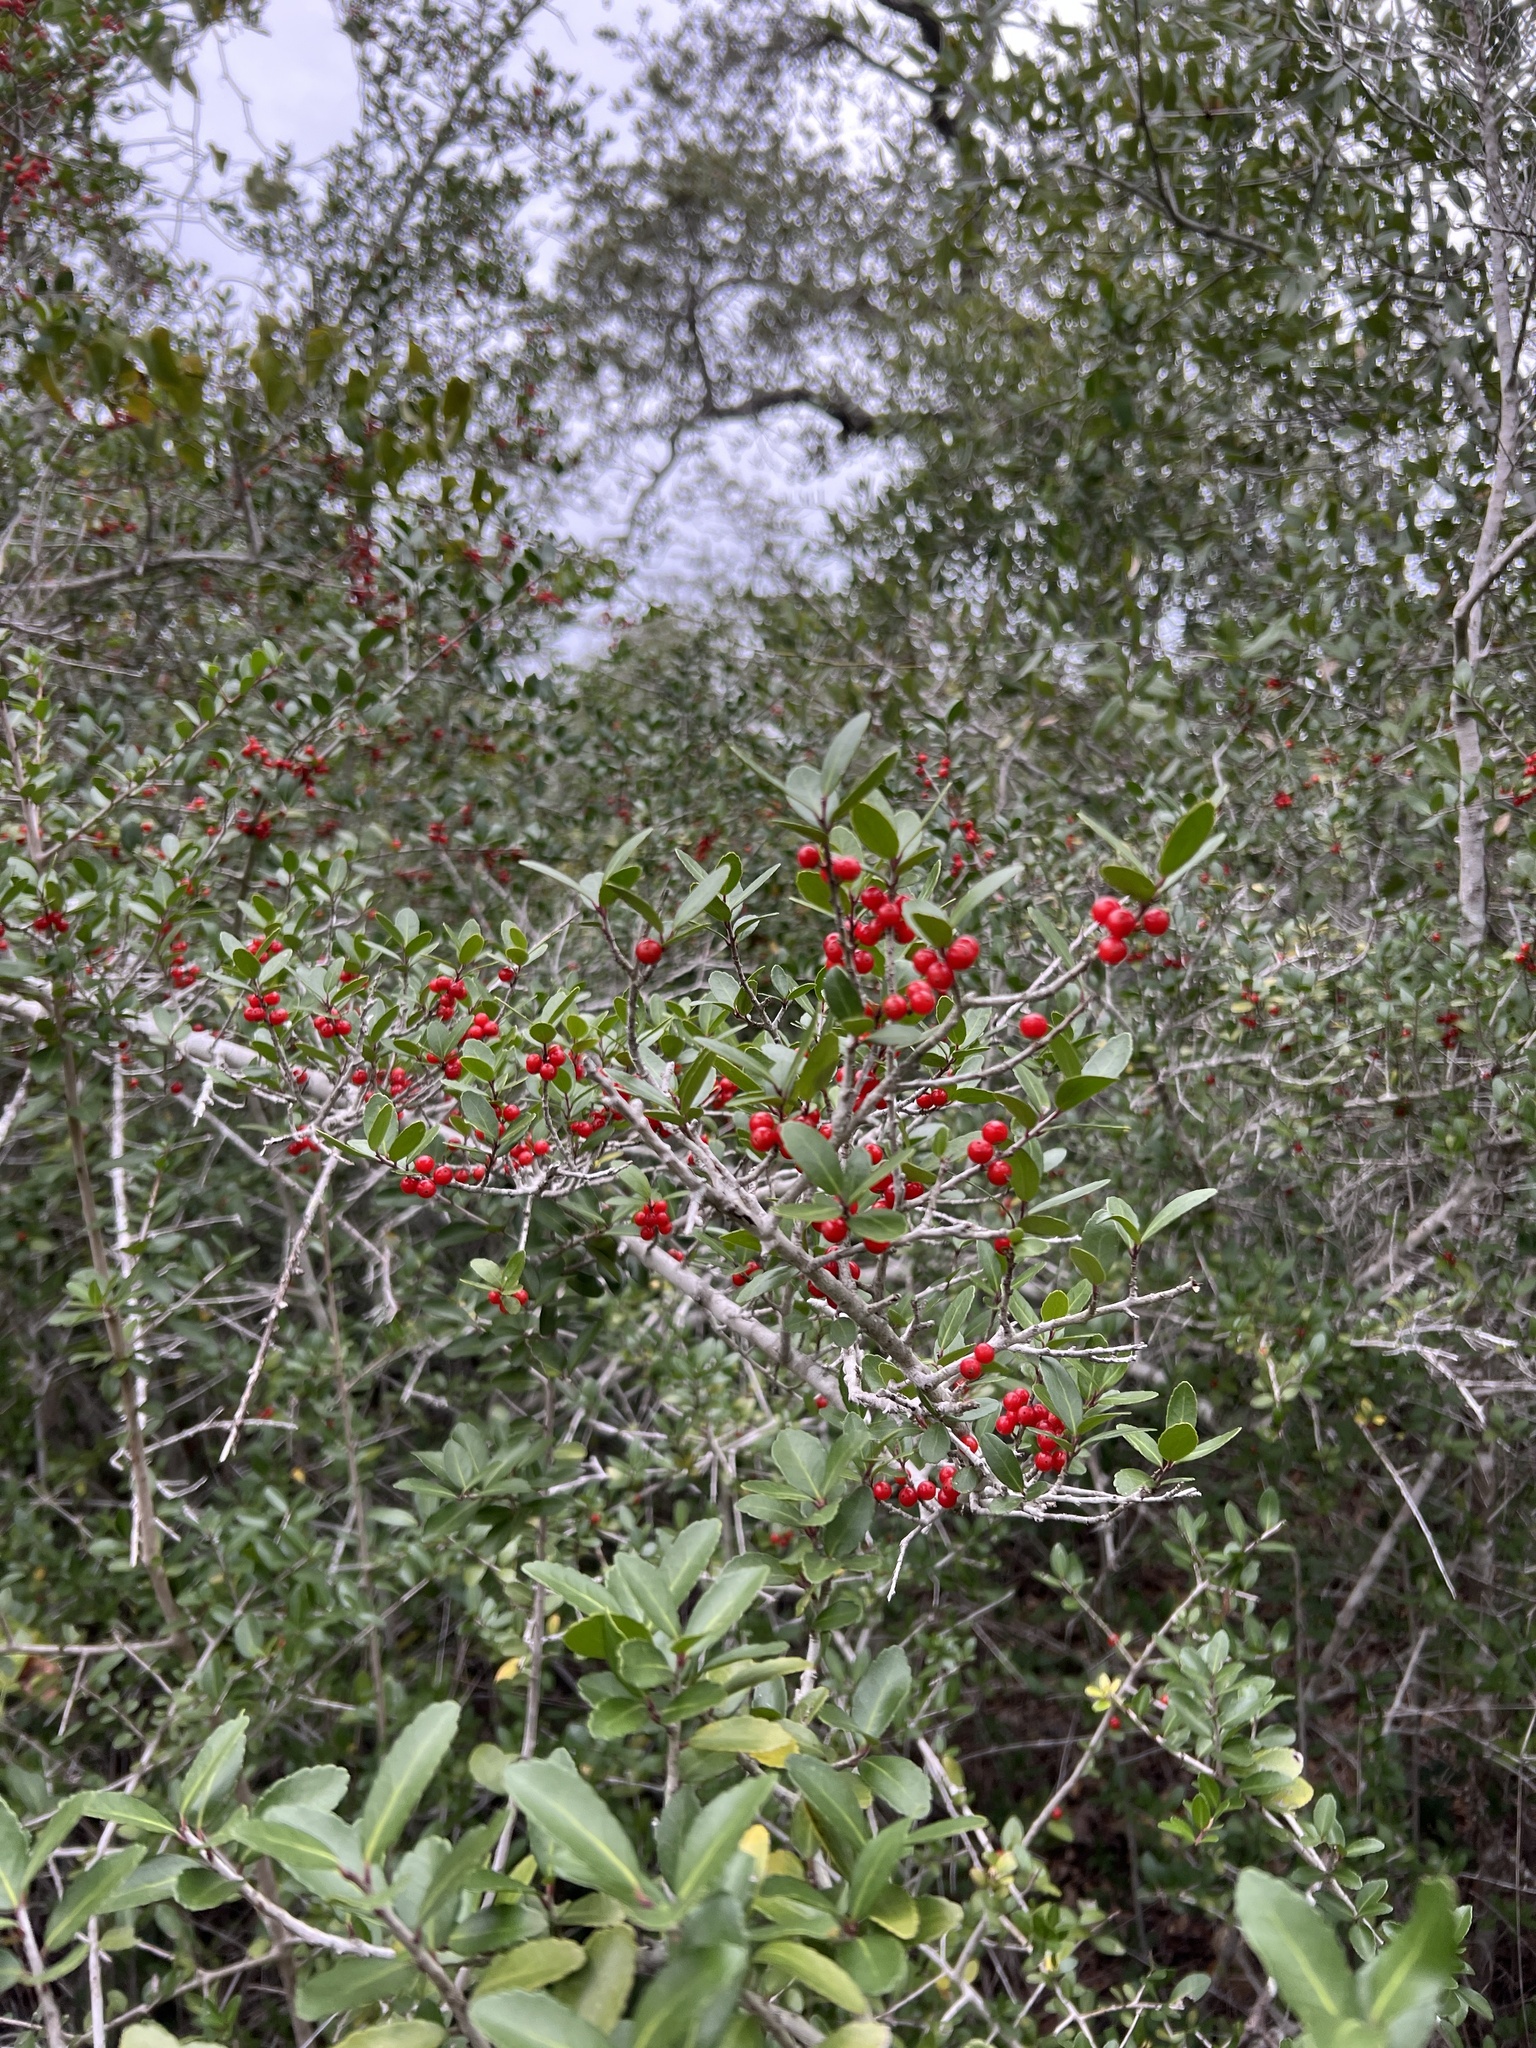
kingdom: Plantae
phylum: Tracheophyta
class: Magnoliopsida
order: Aquifoliales
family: Aquifoliaceae
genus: Ilex
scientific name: Ilex vomitoria
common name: Yaupon holly
